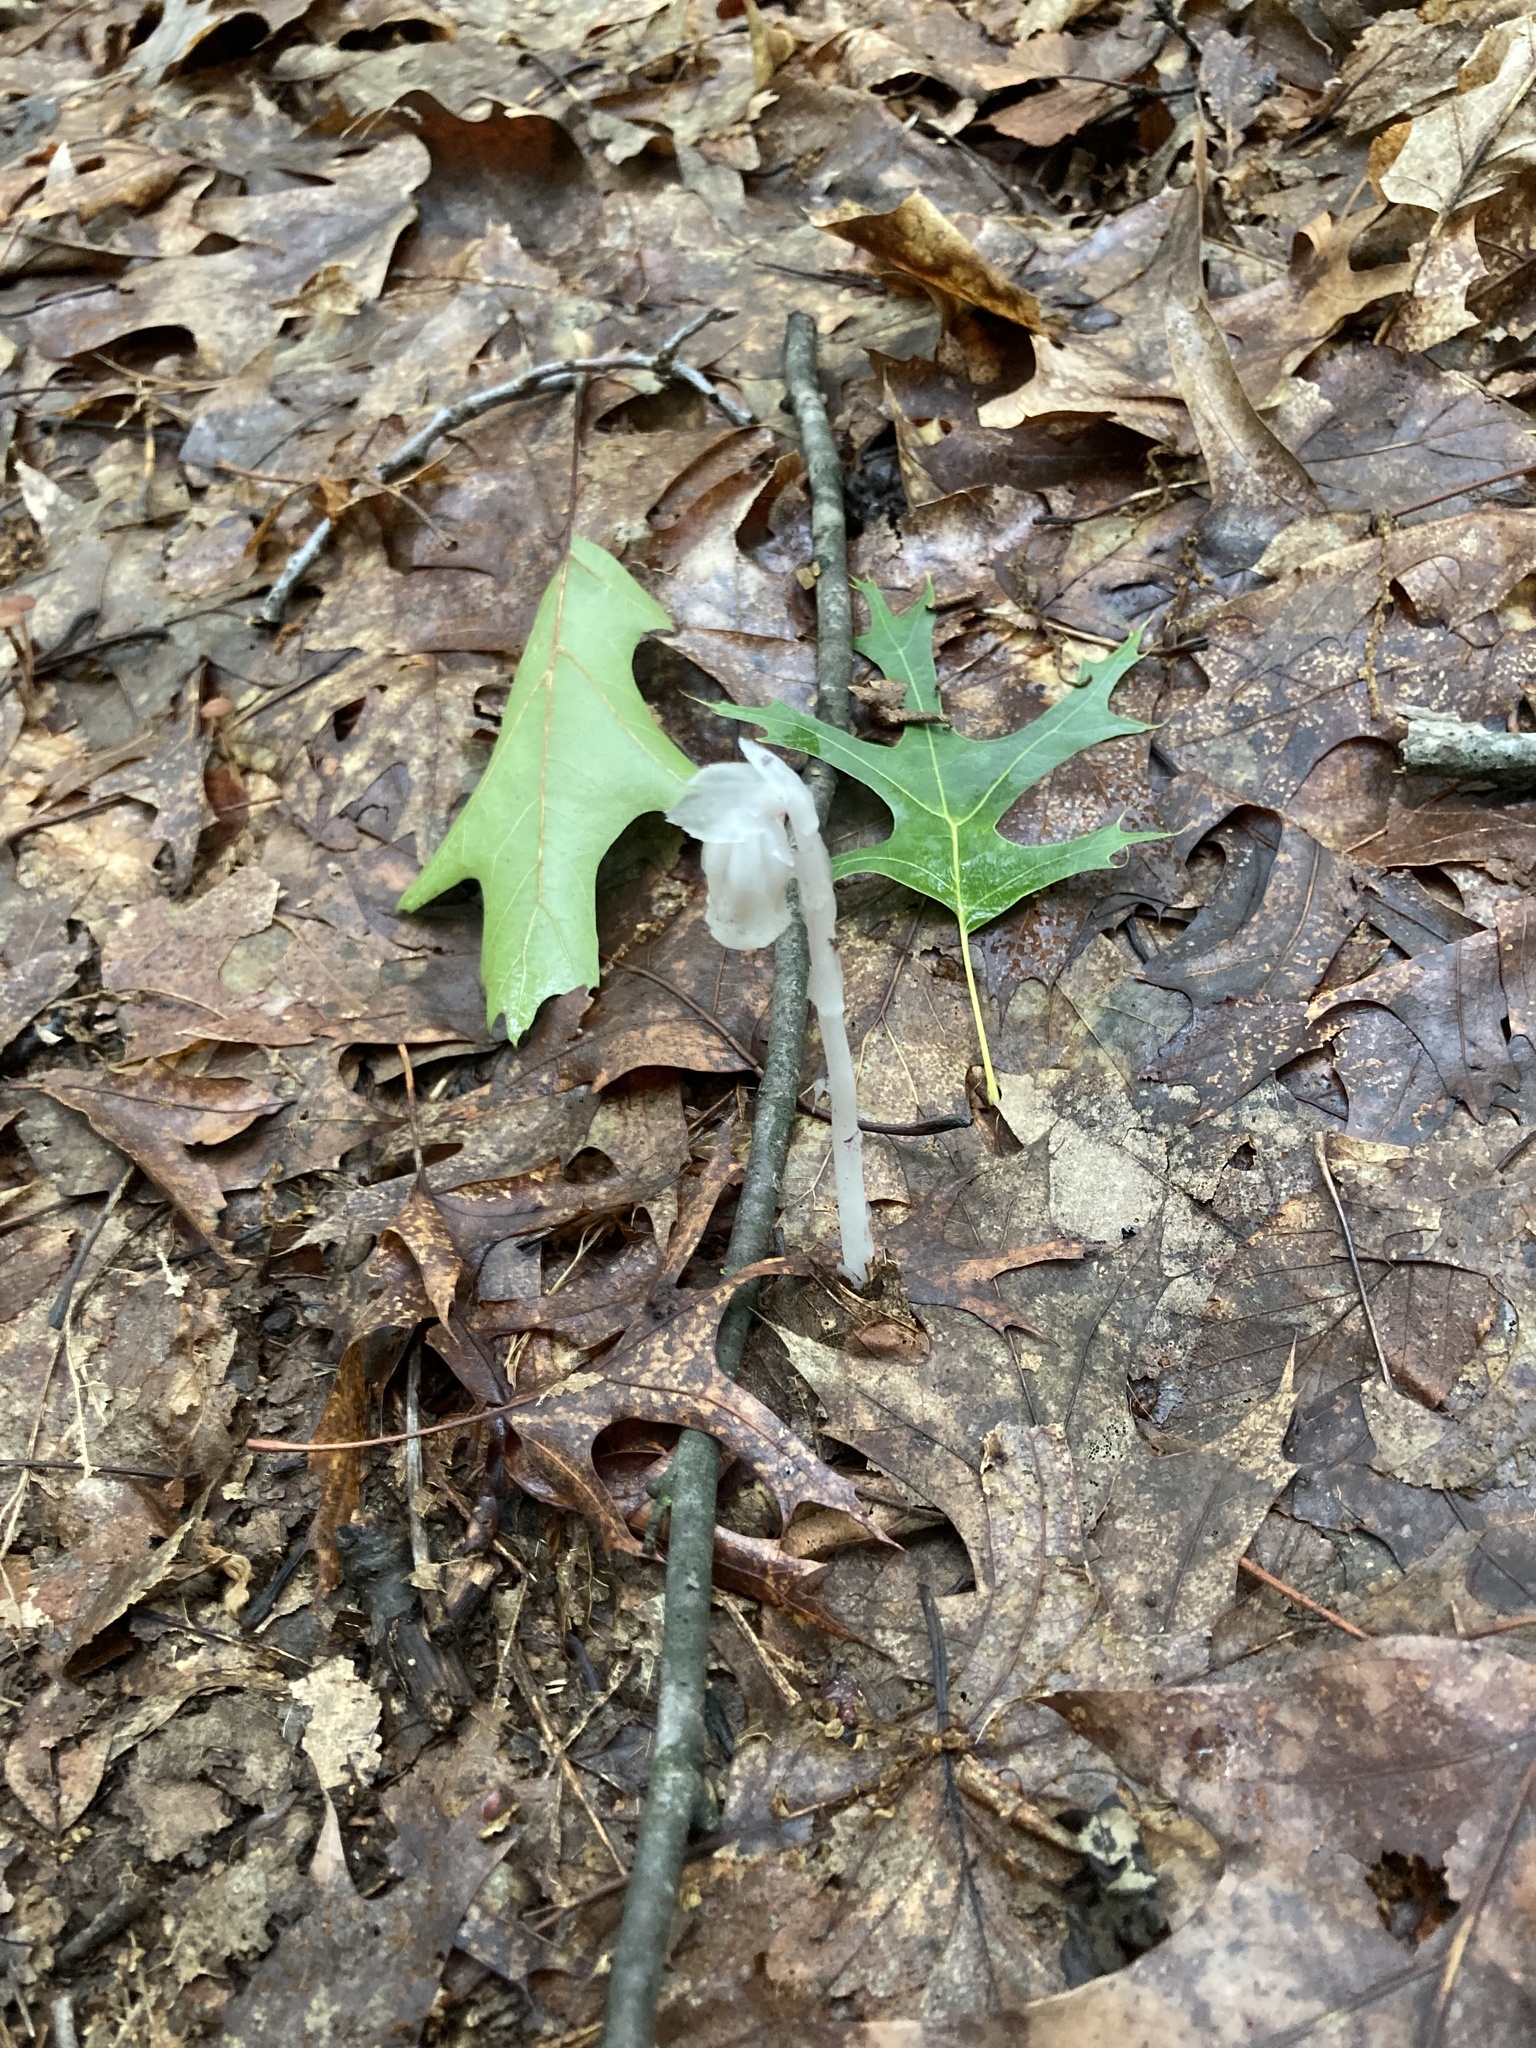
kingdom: Plantae
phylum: Tracheophyta
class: Magnoliopsida
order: Ericales
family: Ericaceae
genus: Monotropa
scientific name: Monotropa uniflora
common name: Convulsion root
